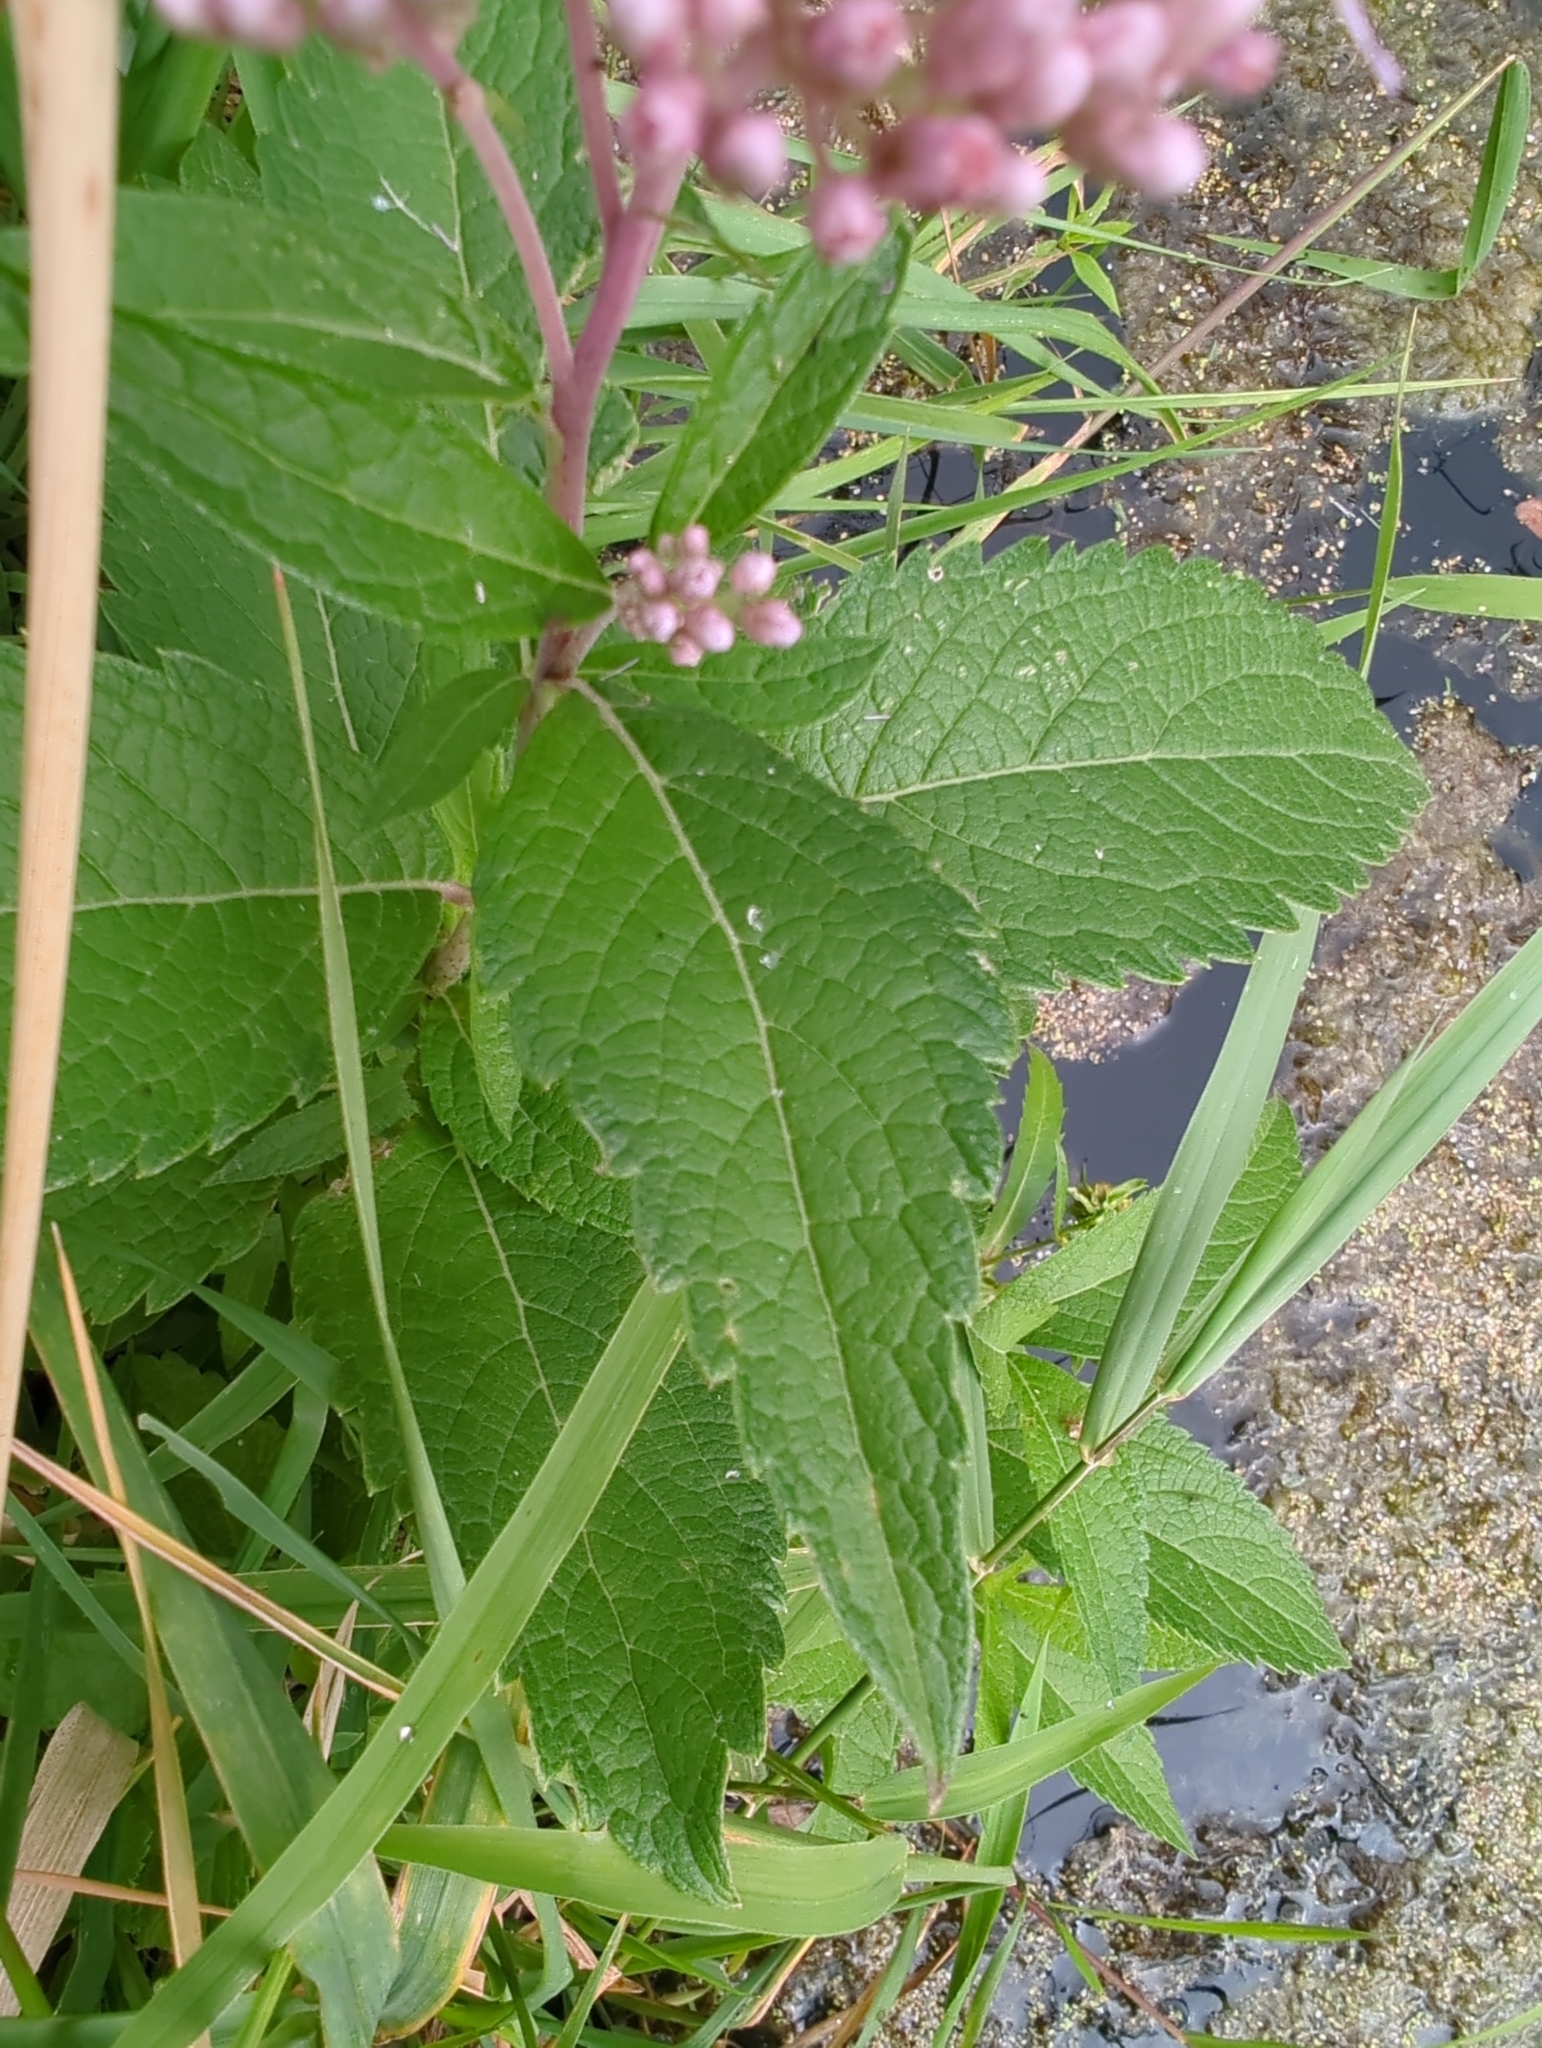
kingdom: Plantae
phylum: Tracheophyta
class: Magnoliopsida
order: Asterales
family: Asteraceae
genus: Eutrochium
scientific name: Eutrochium maculatum
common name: Spotted joe pye weed
